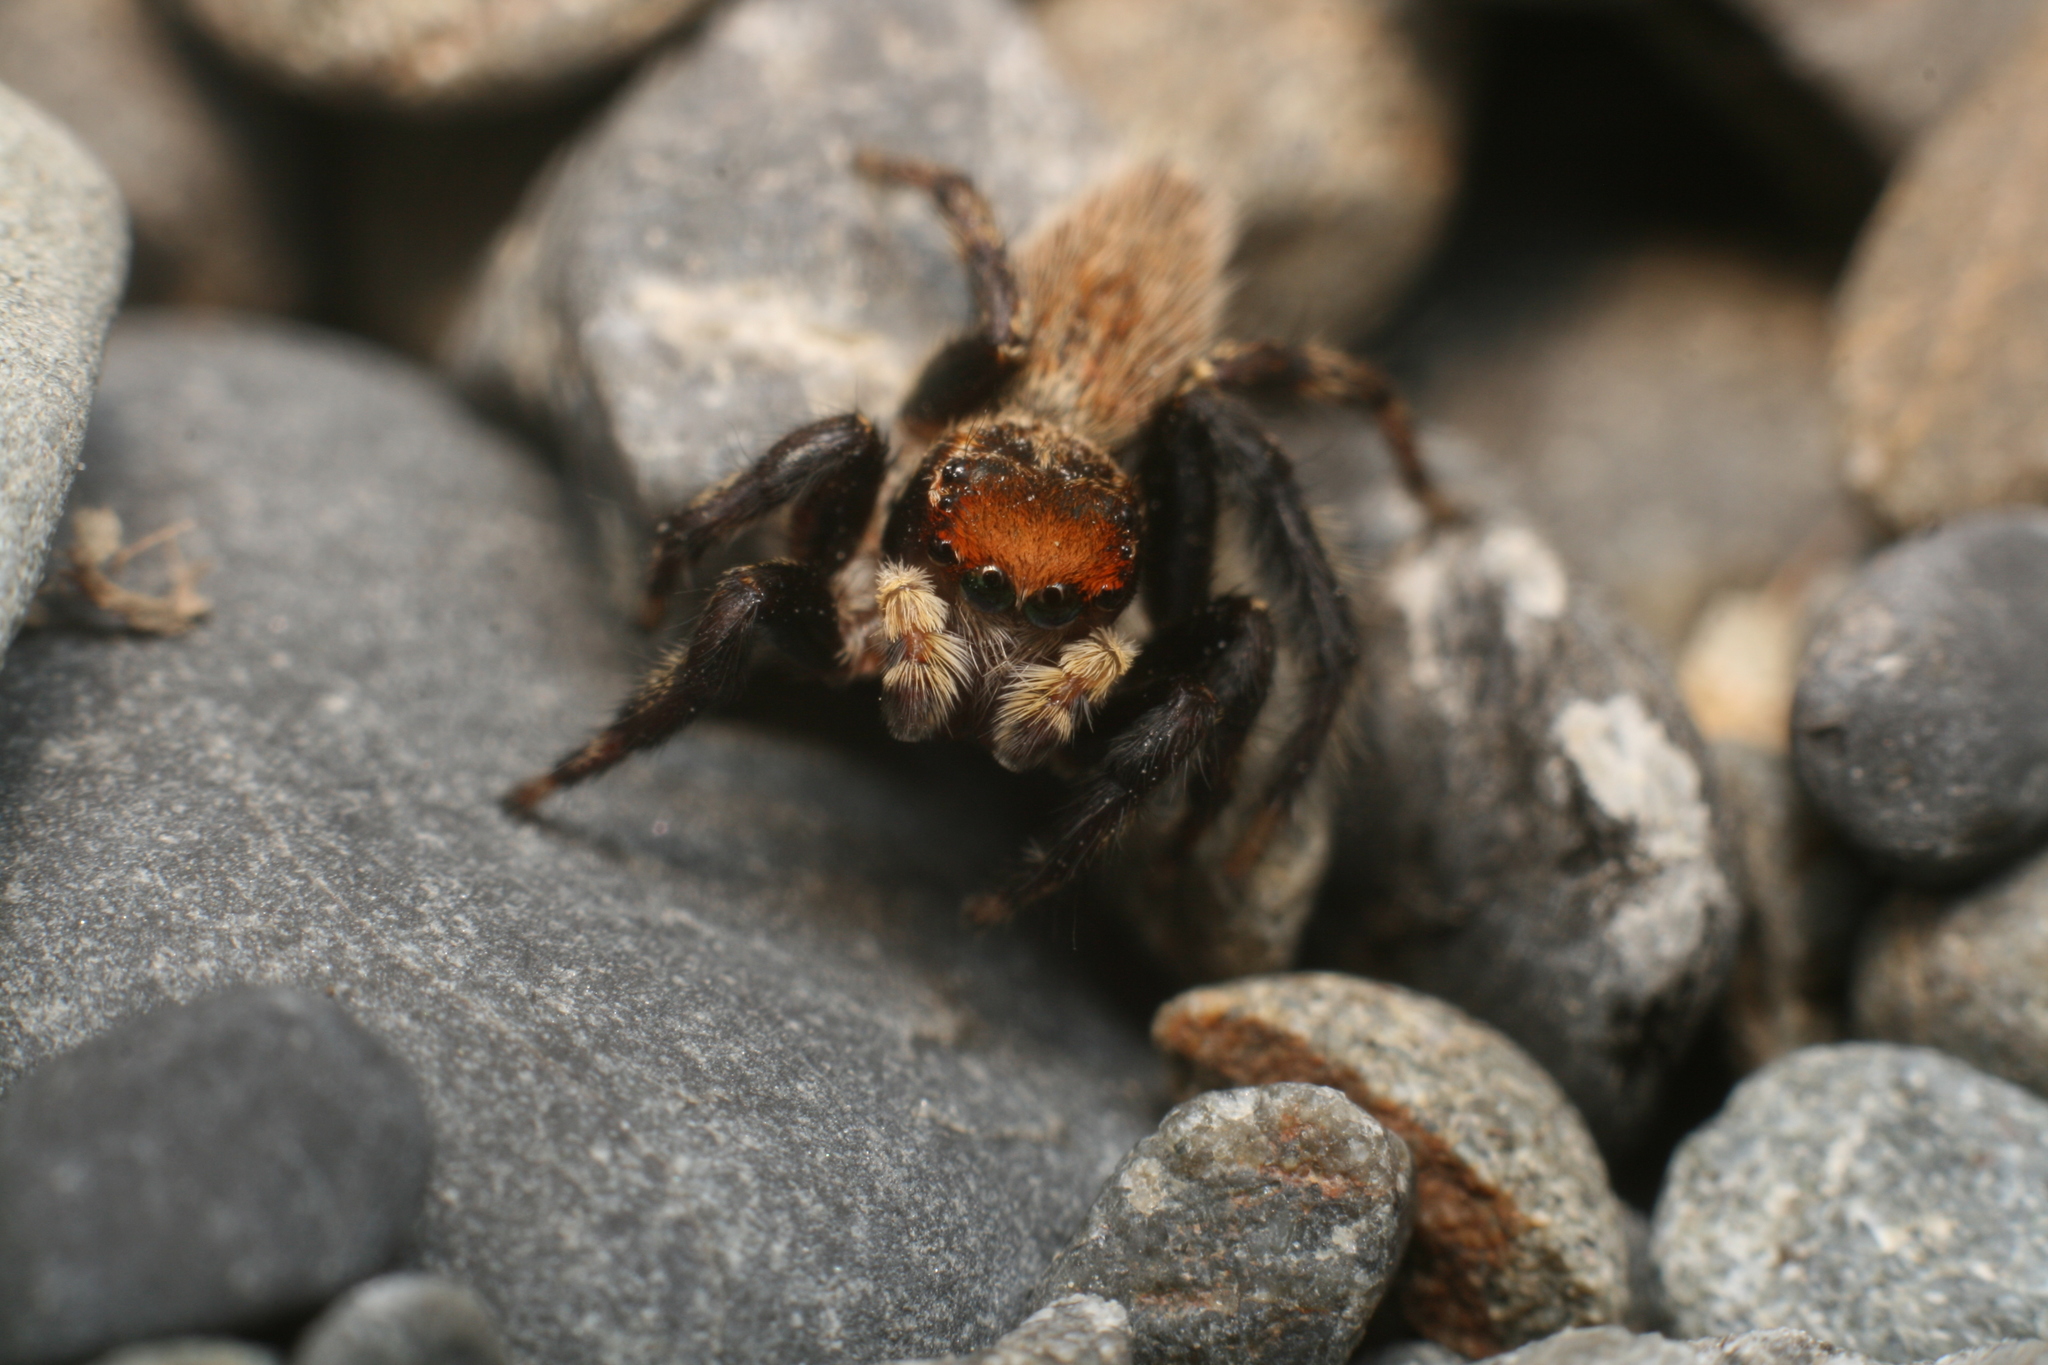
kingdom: Animalia
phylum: Arthropoda
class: Arachnida
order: Araneae
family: Salticidae
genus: Maratus
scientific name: Maratus griseus
